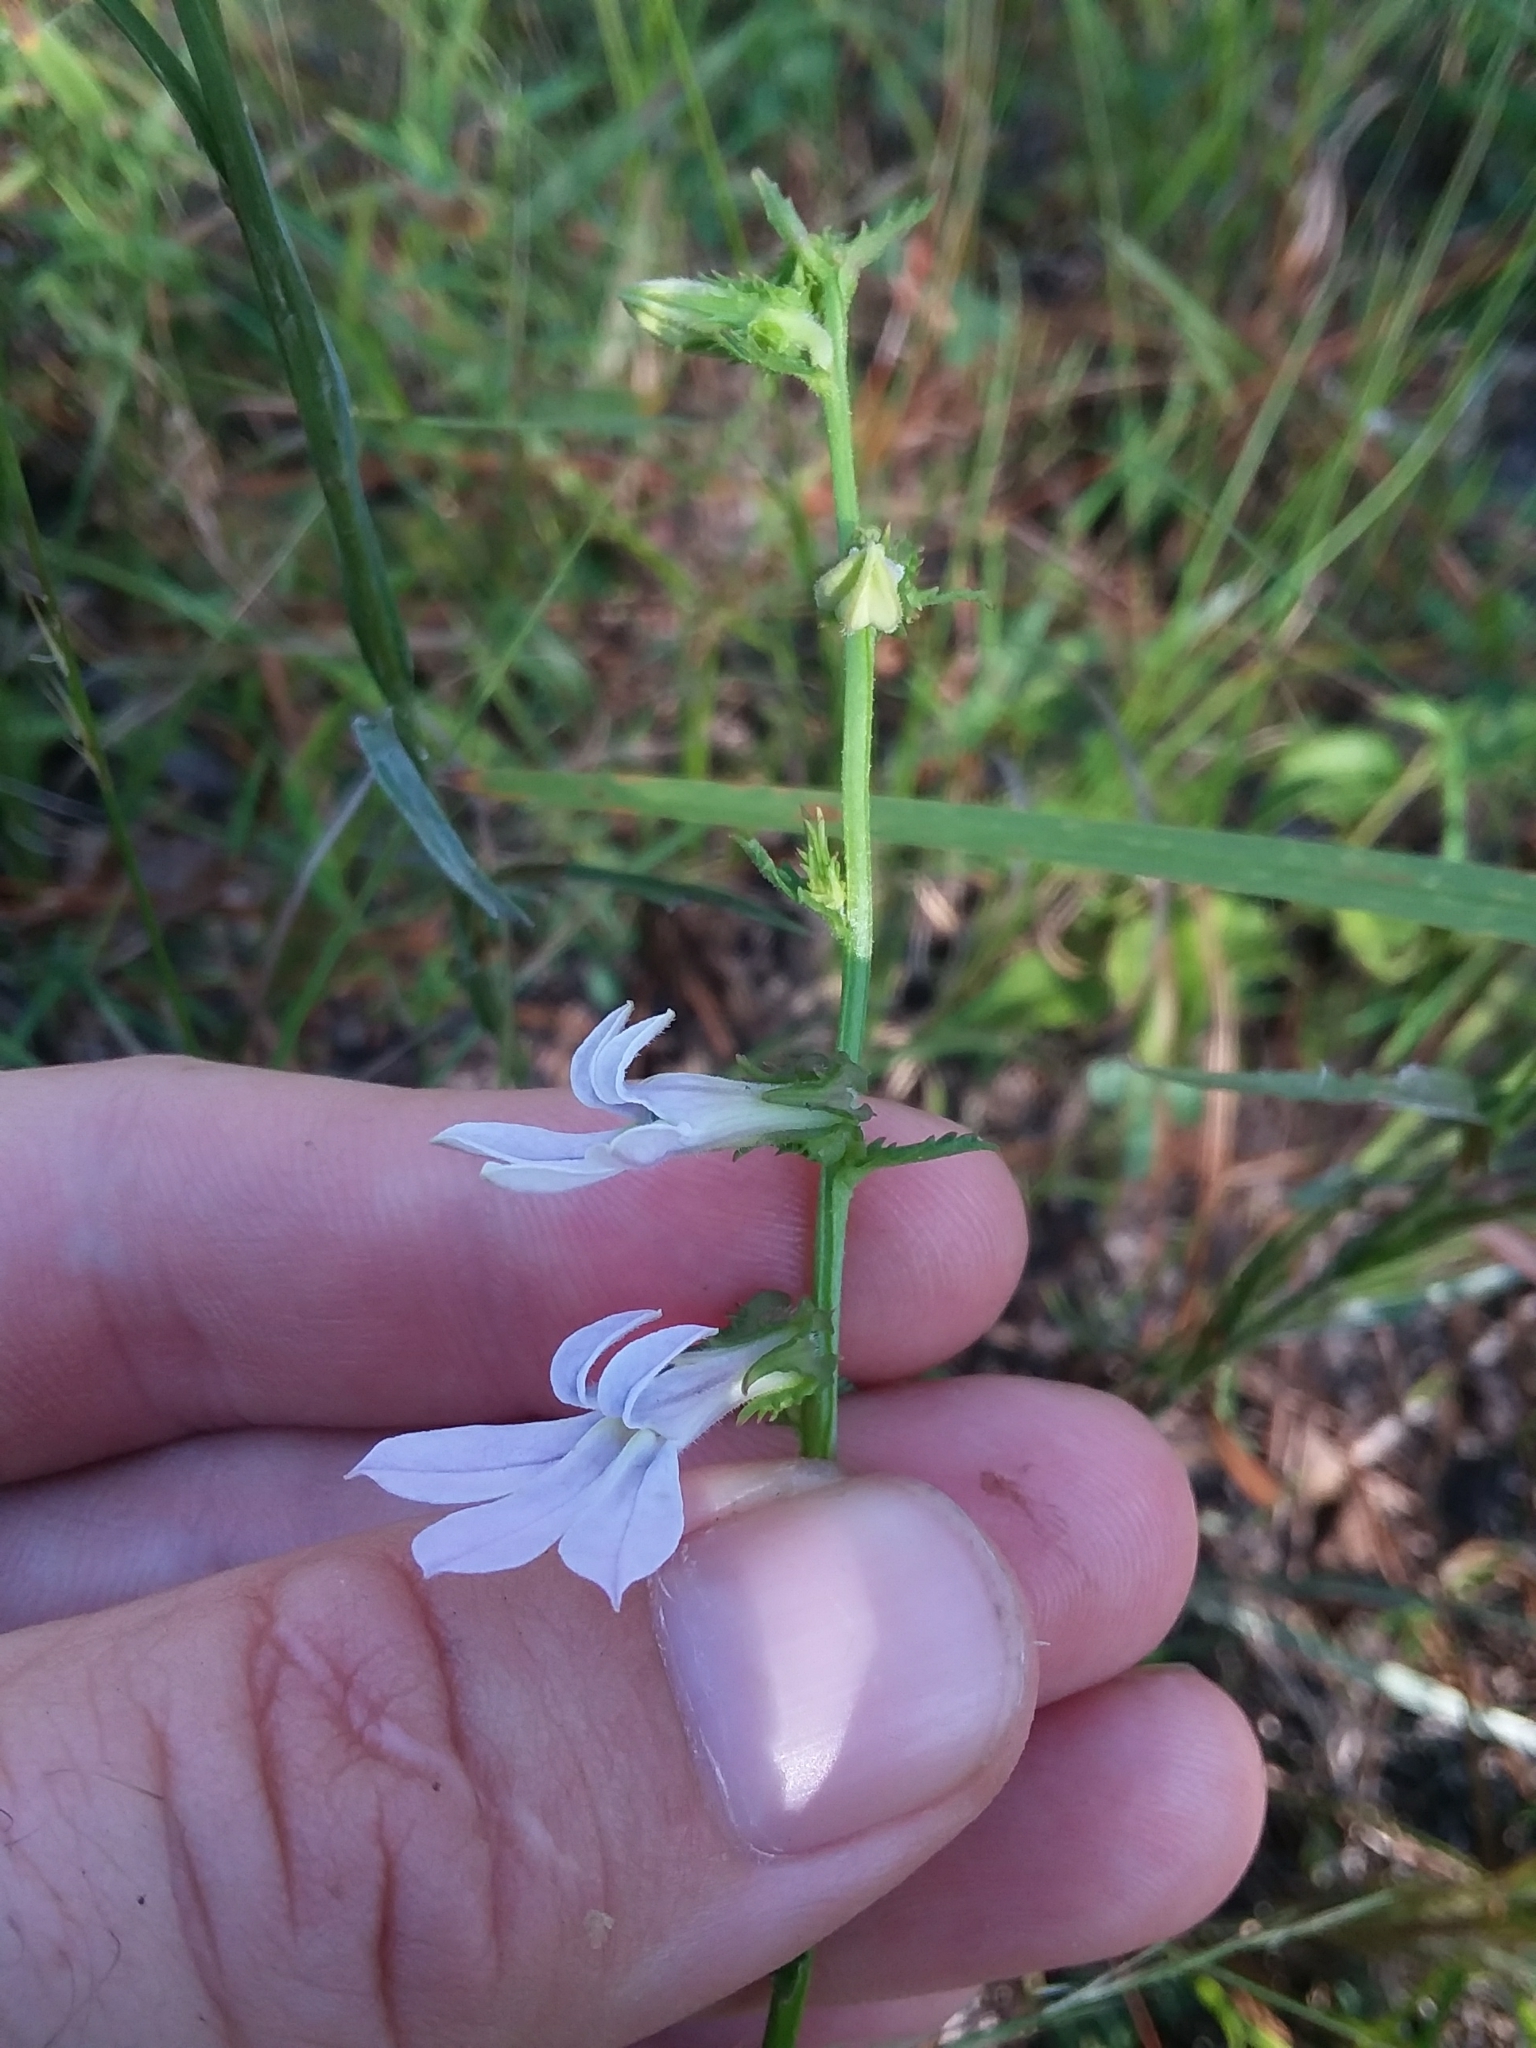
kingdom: Plantae
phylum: Tracheophyta
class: Magnoliopsida
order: Asterales
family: Campanulaceae
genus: Lobelia
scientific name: Lobelia brevifolia
